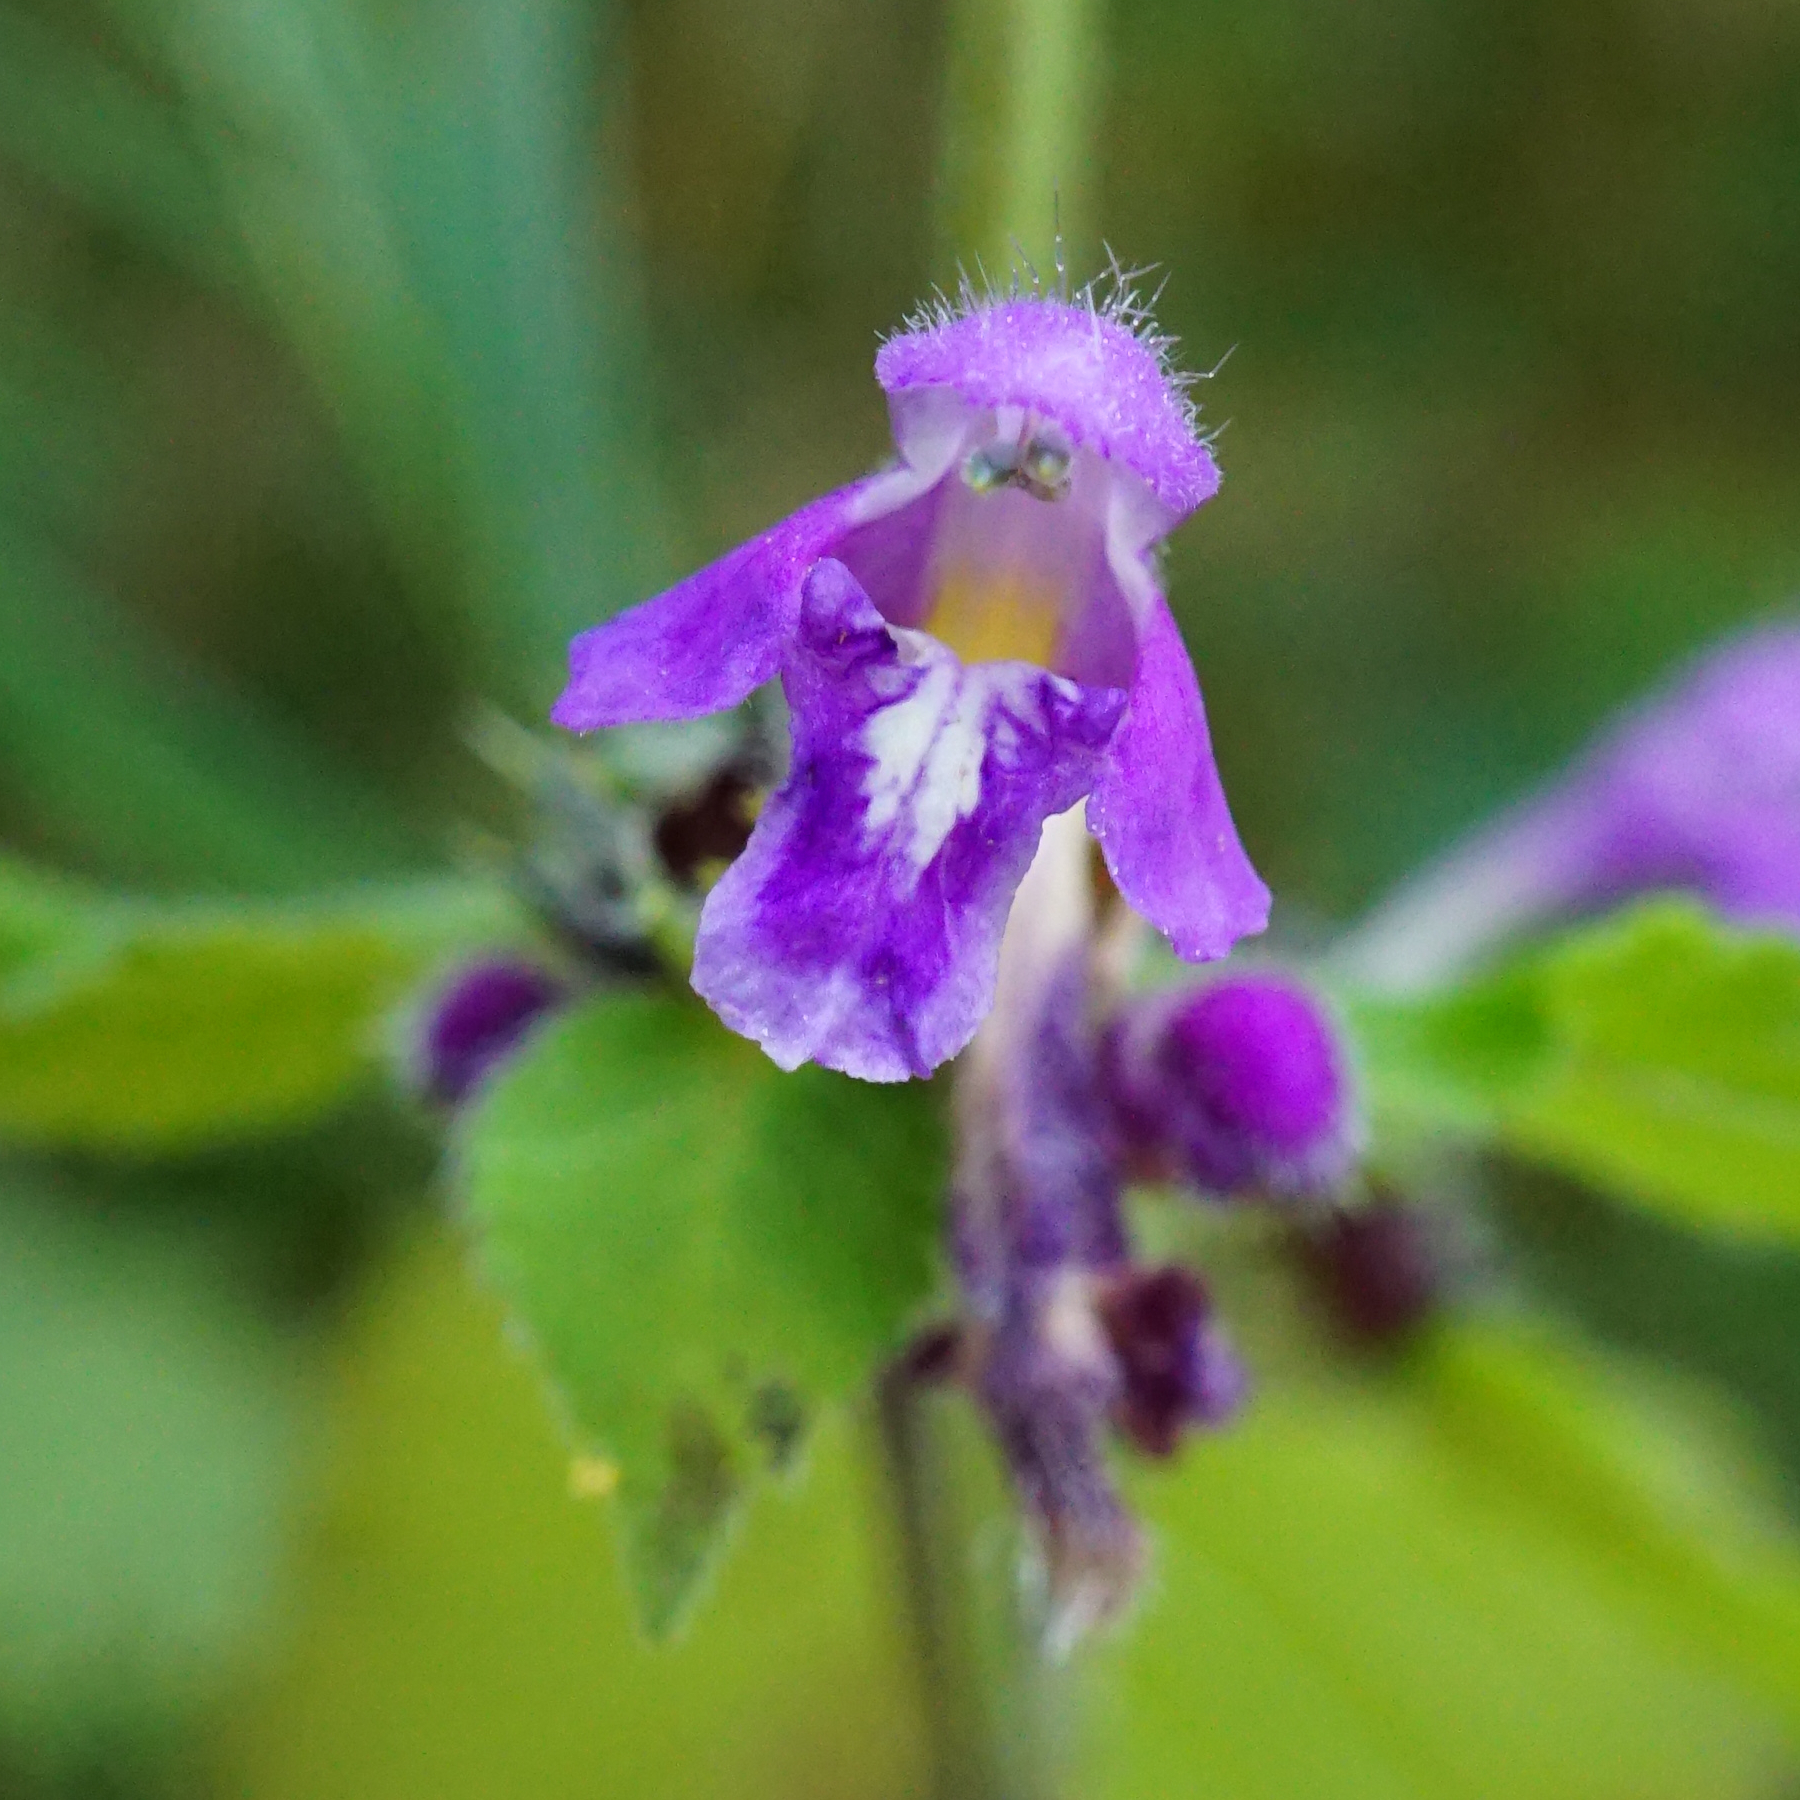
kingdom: Plantae
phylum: Tracheophyta
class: Magnoliopsida
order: Lamiales
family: Lamiaceae
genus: Galeopsis
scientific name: Galeopsis pubescens
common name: Downy hemp-nettle
